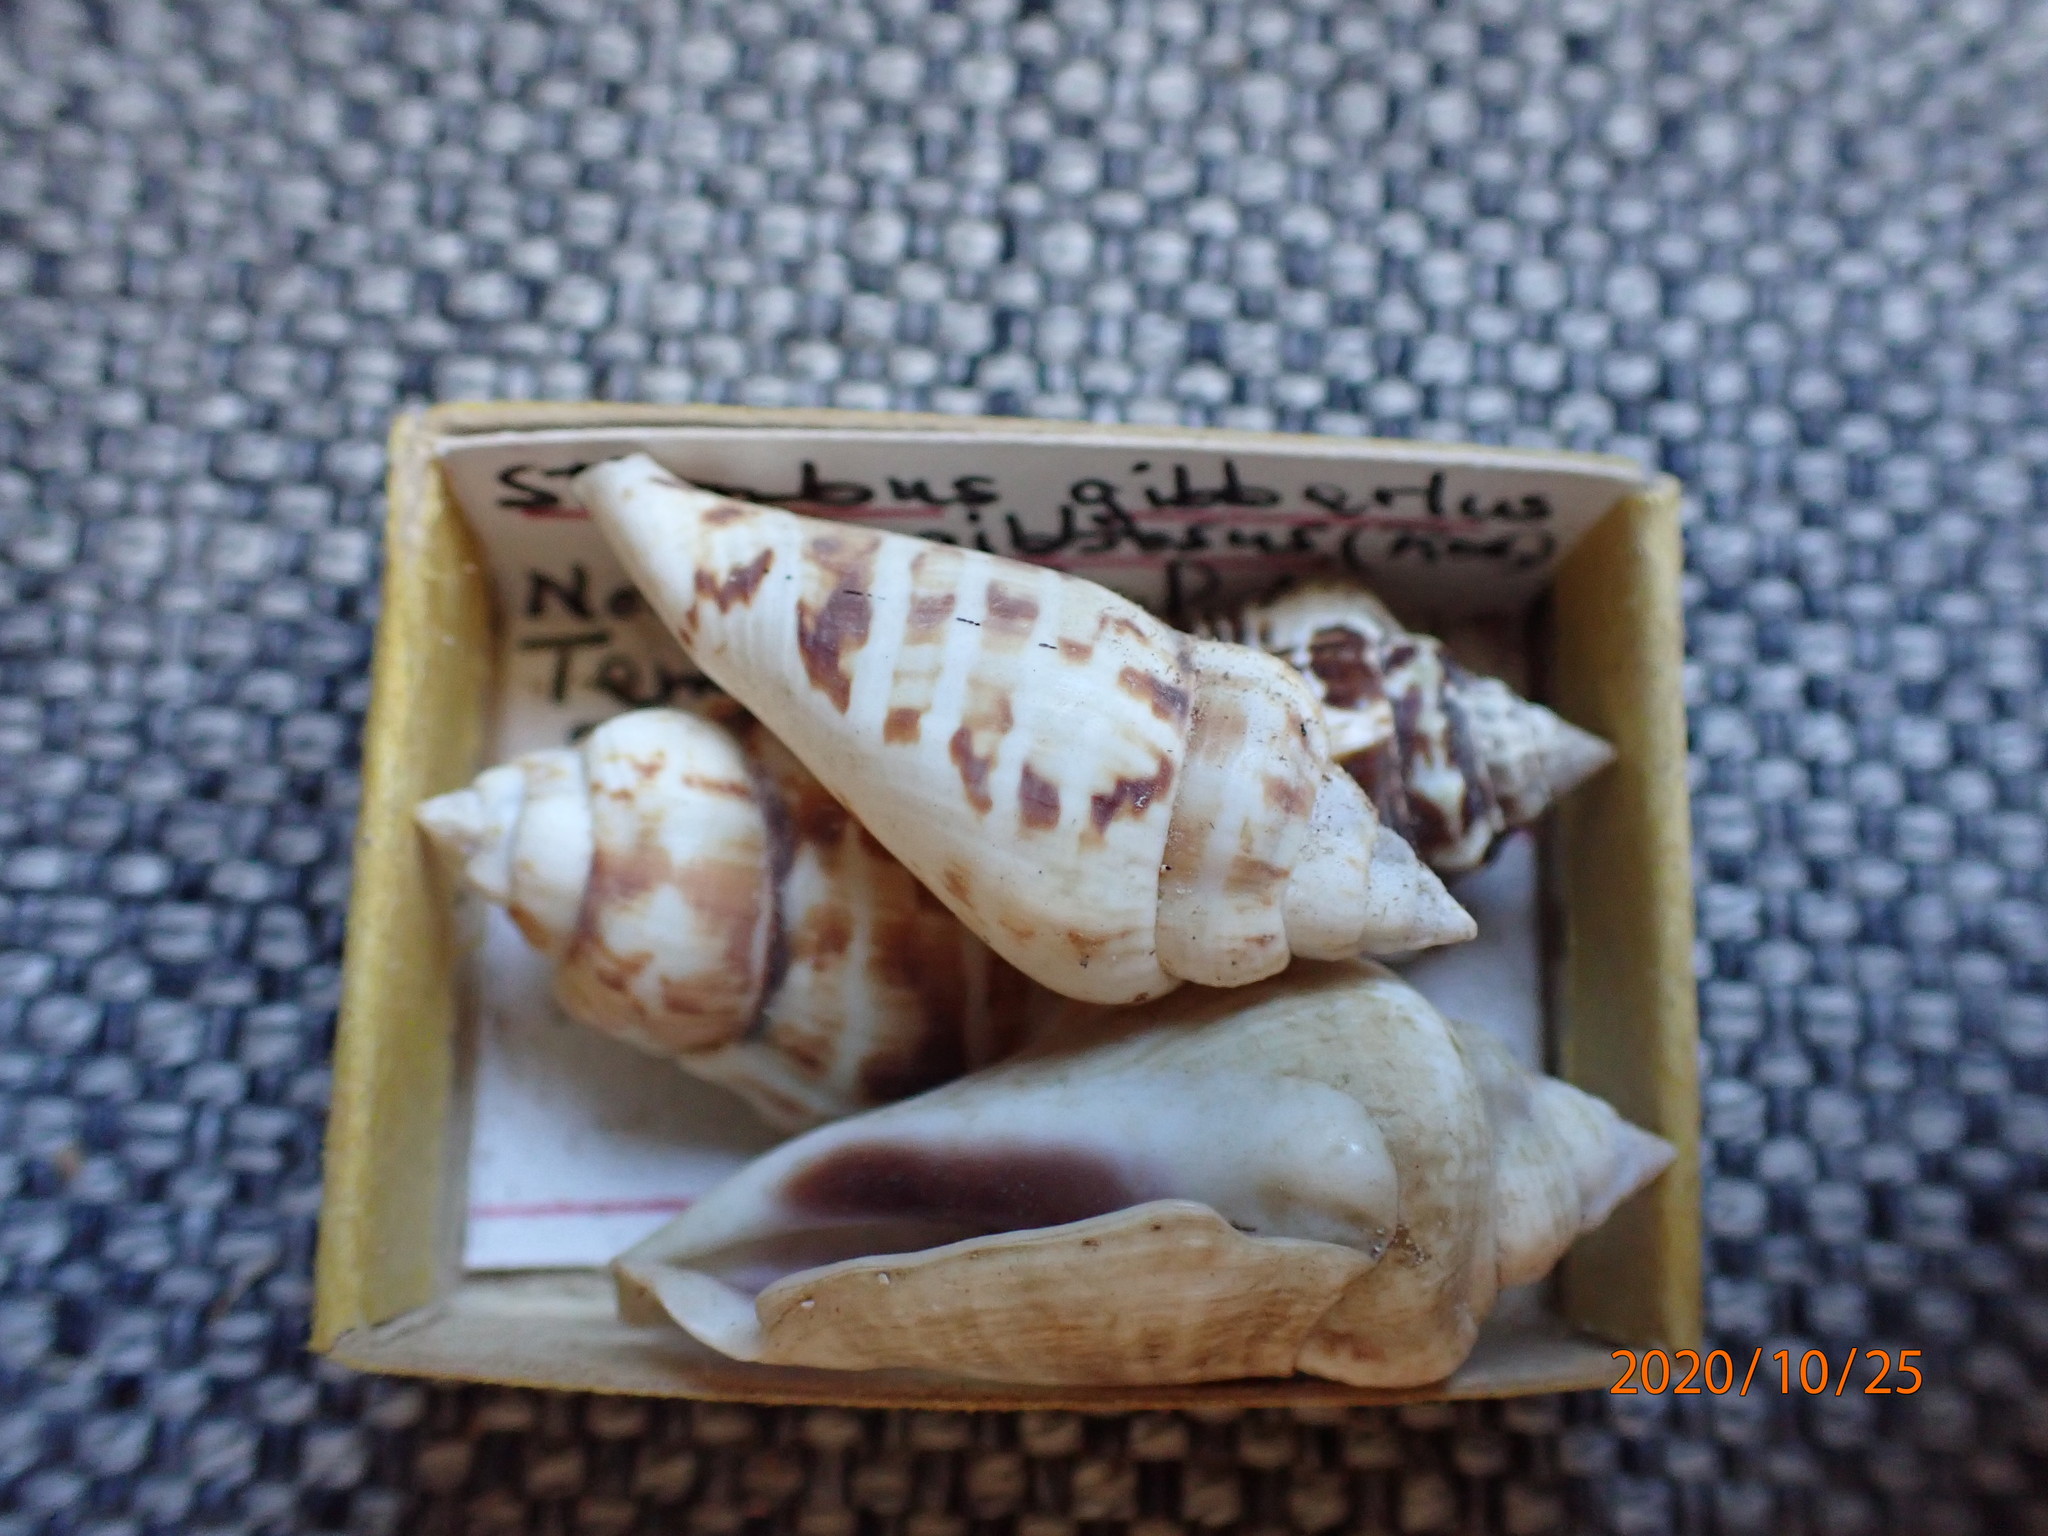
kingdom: Animalia
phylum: Mollusca
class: Gastropoda
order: Littorinimorpha
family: Strombidae
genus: Gibberulus
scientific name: Gibberulus gibberulus
